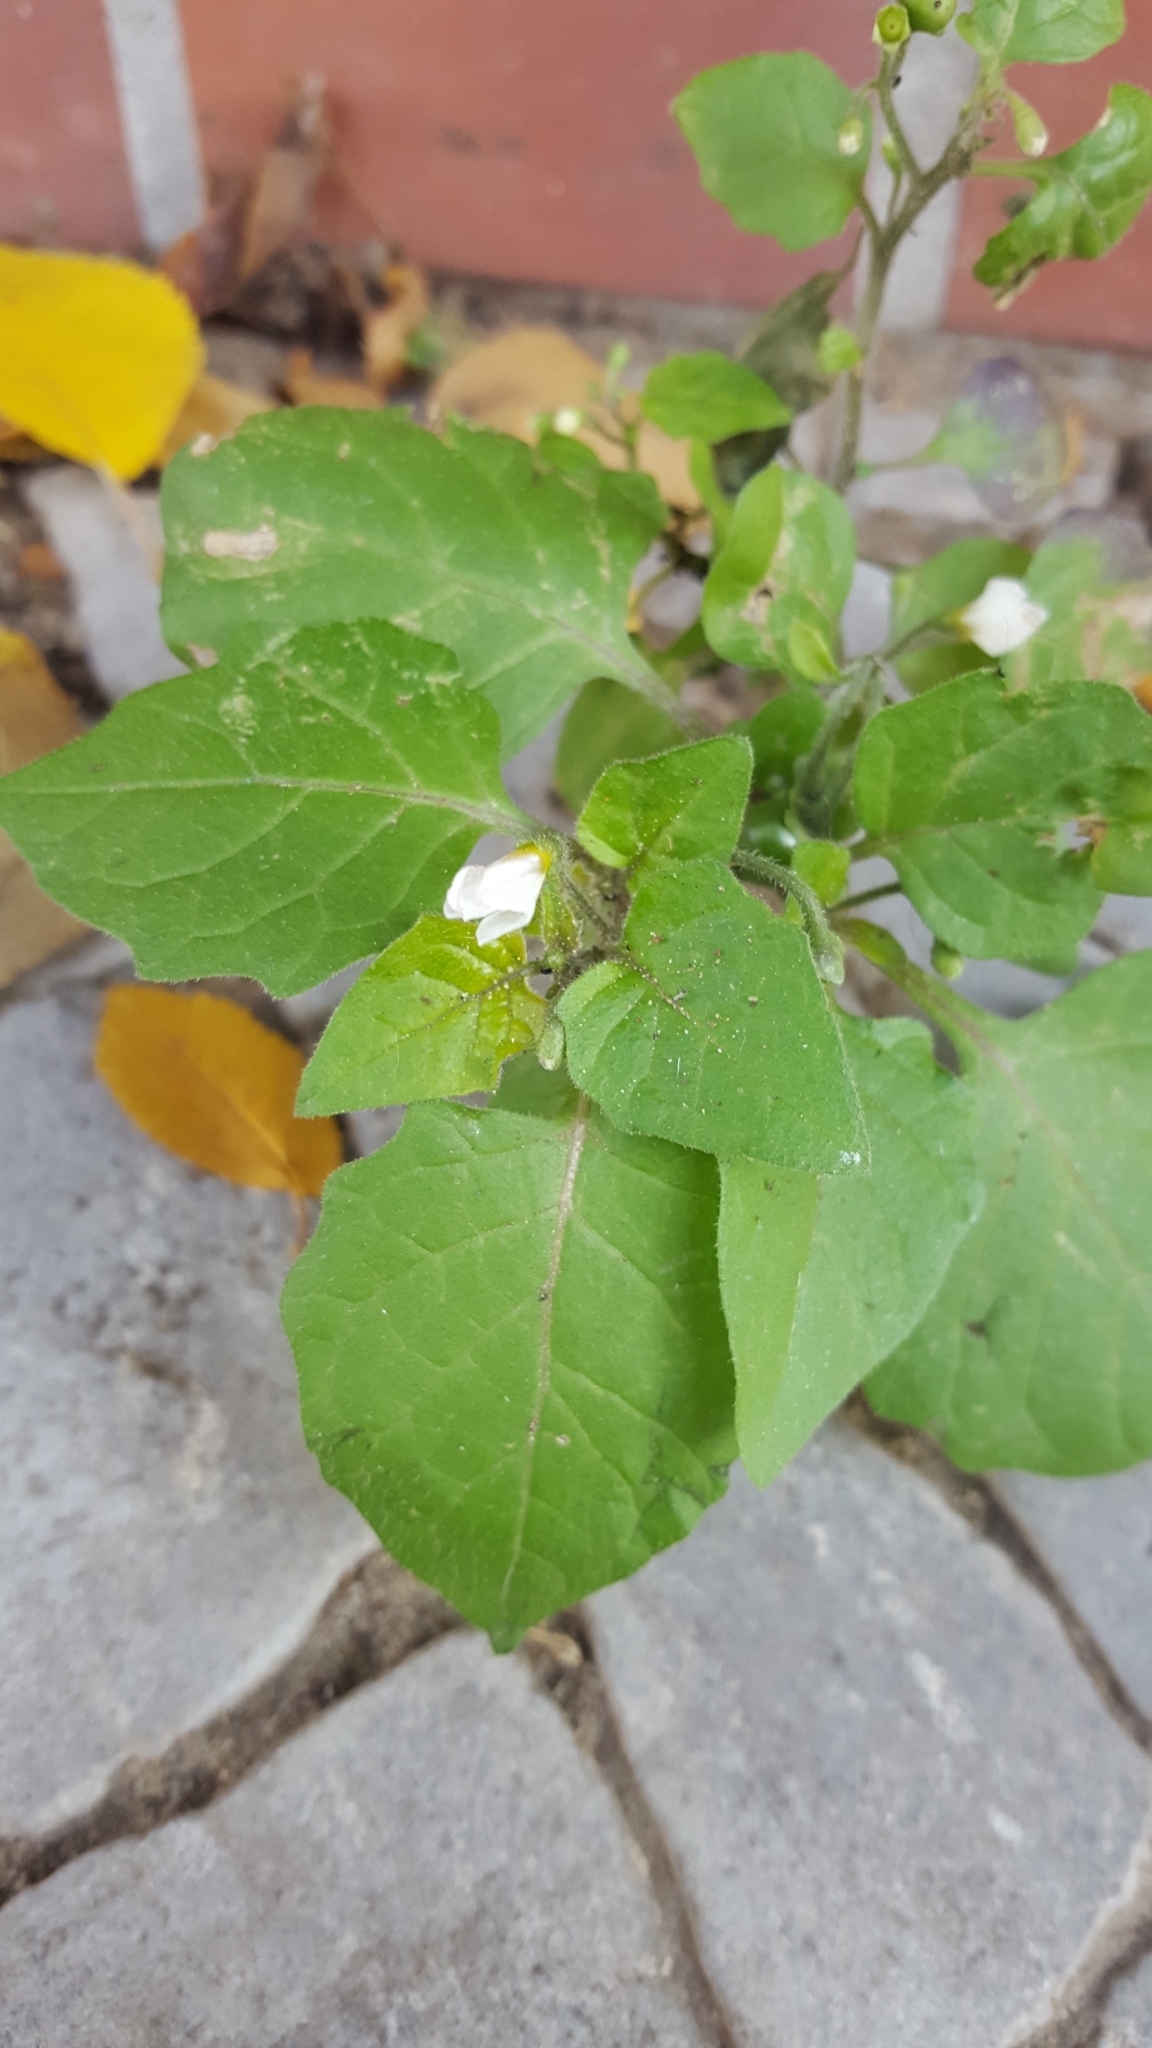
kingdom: Plantae
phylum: Tracheophyta
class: Magnoliopsida
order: Solanales
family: Solanaceae
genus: Solanum
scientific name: Solanum nigrum
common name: Black nightshade
